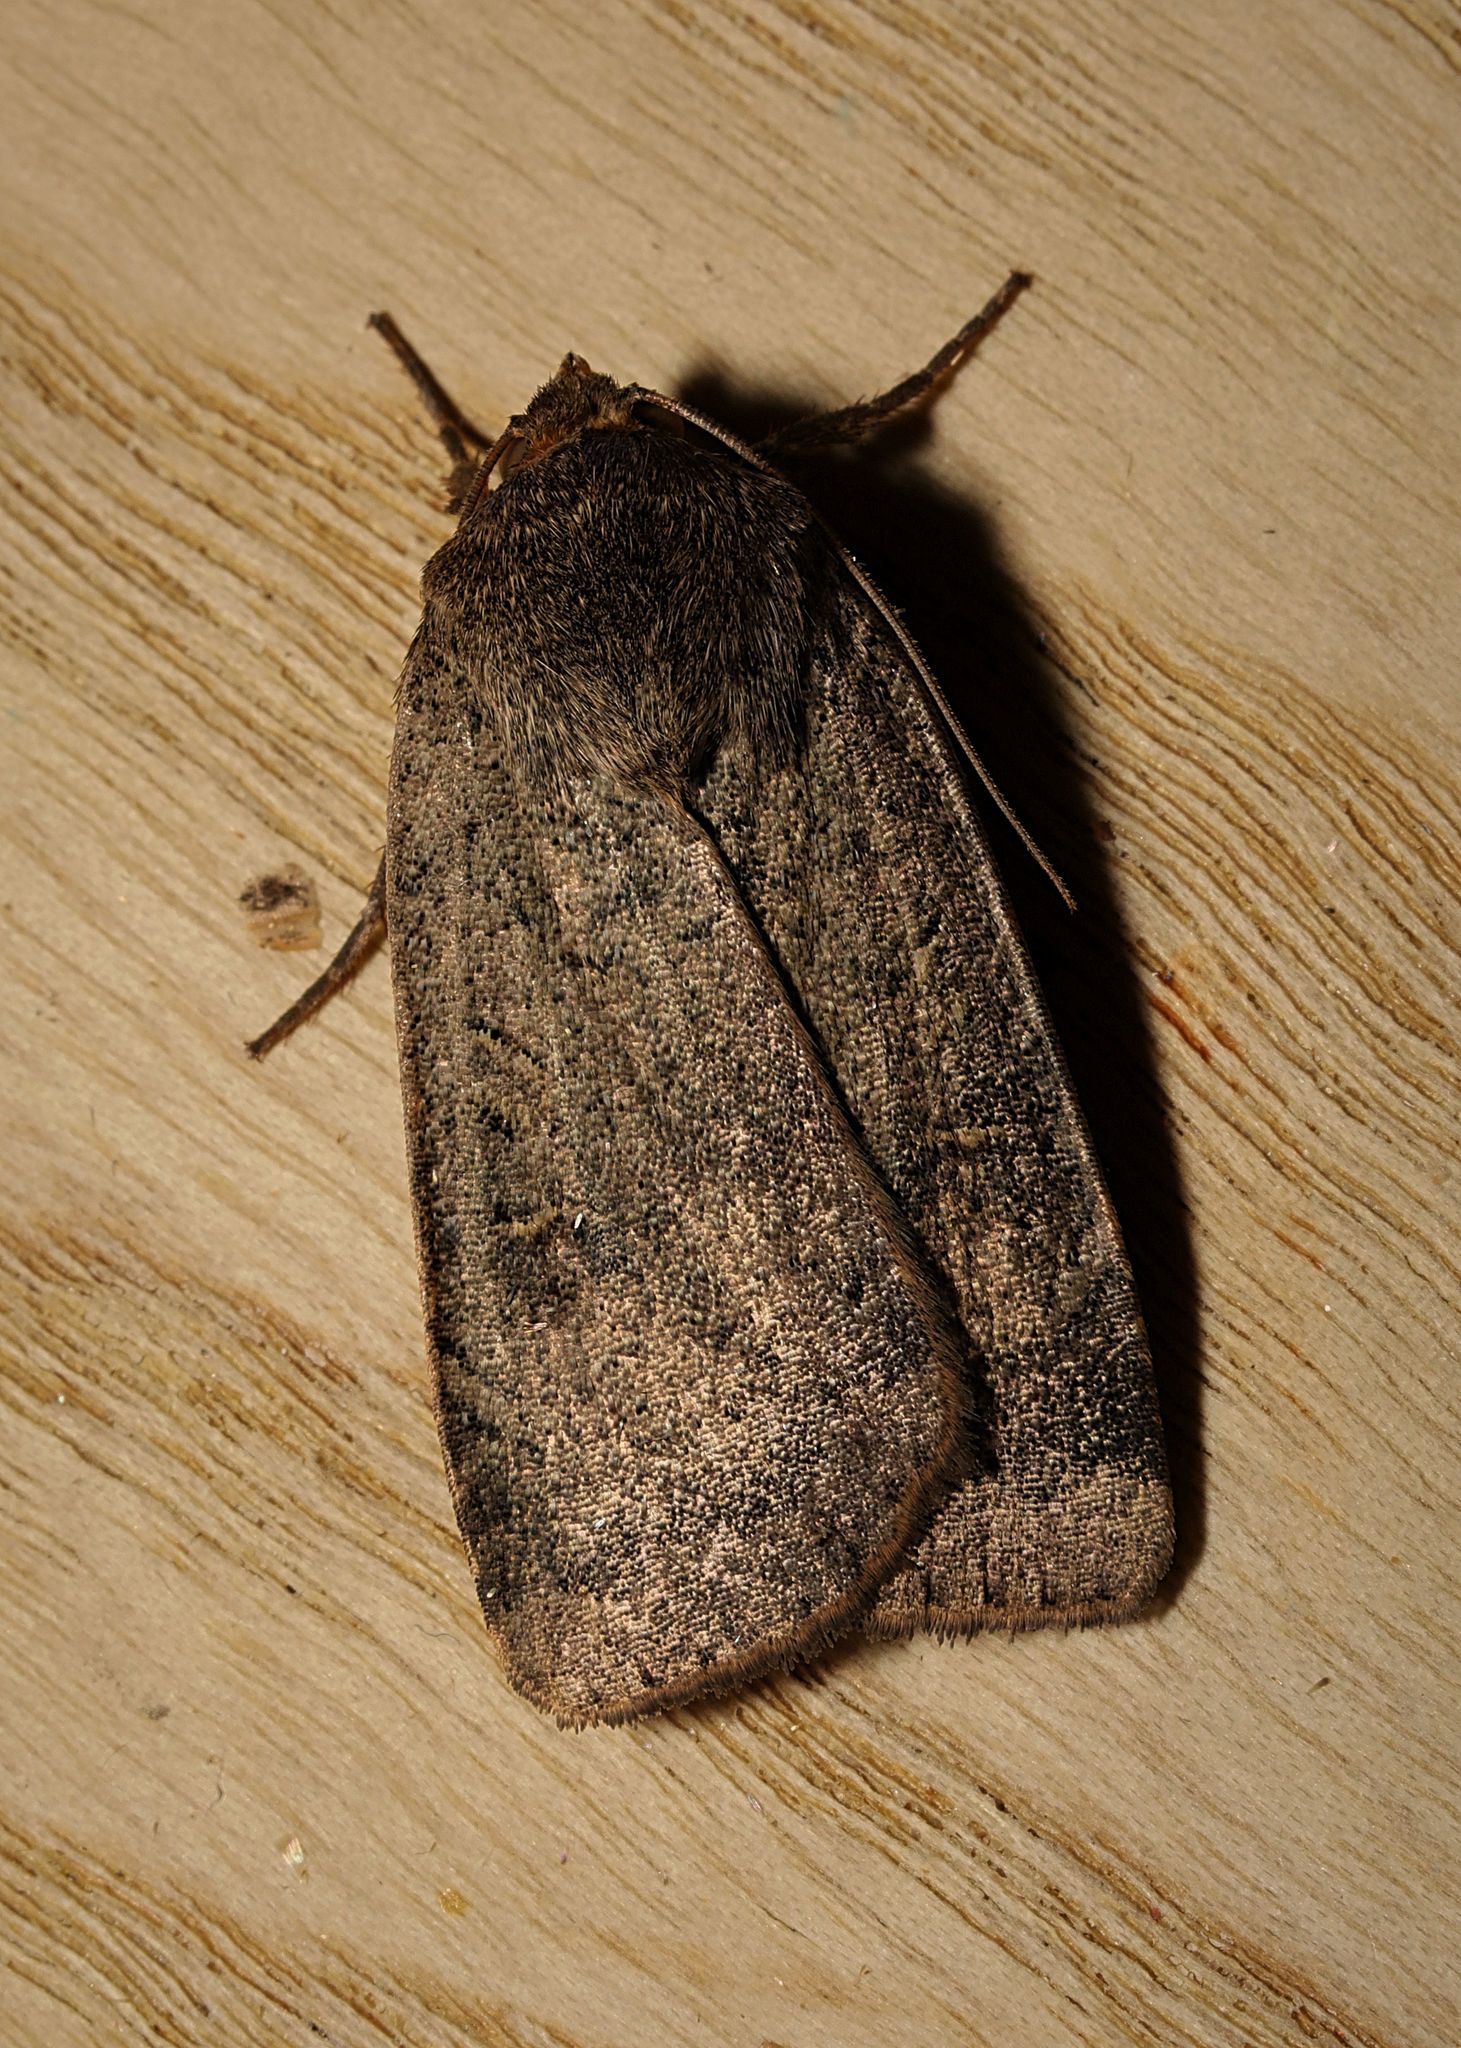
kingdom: Animalia
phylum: Arthropoda
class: Insecta
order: Lepidoptera
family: Noctuidae
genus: Noctua
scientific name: Noctua comes
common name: Lesser yellow underwing
